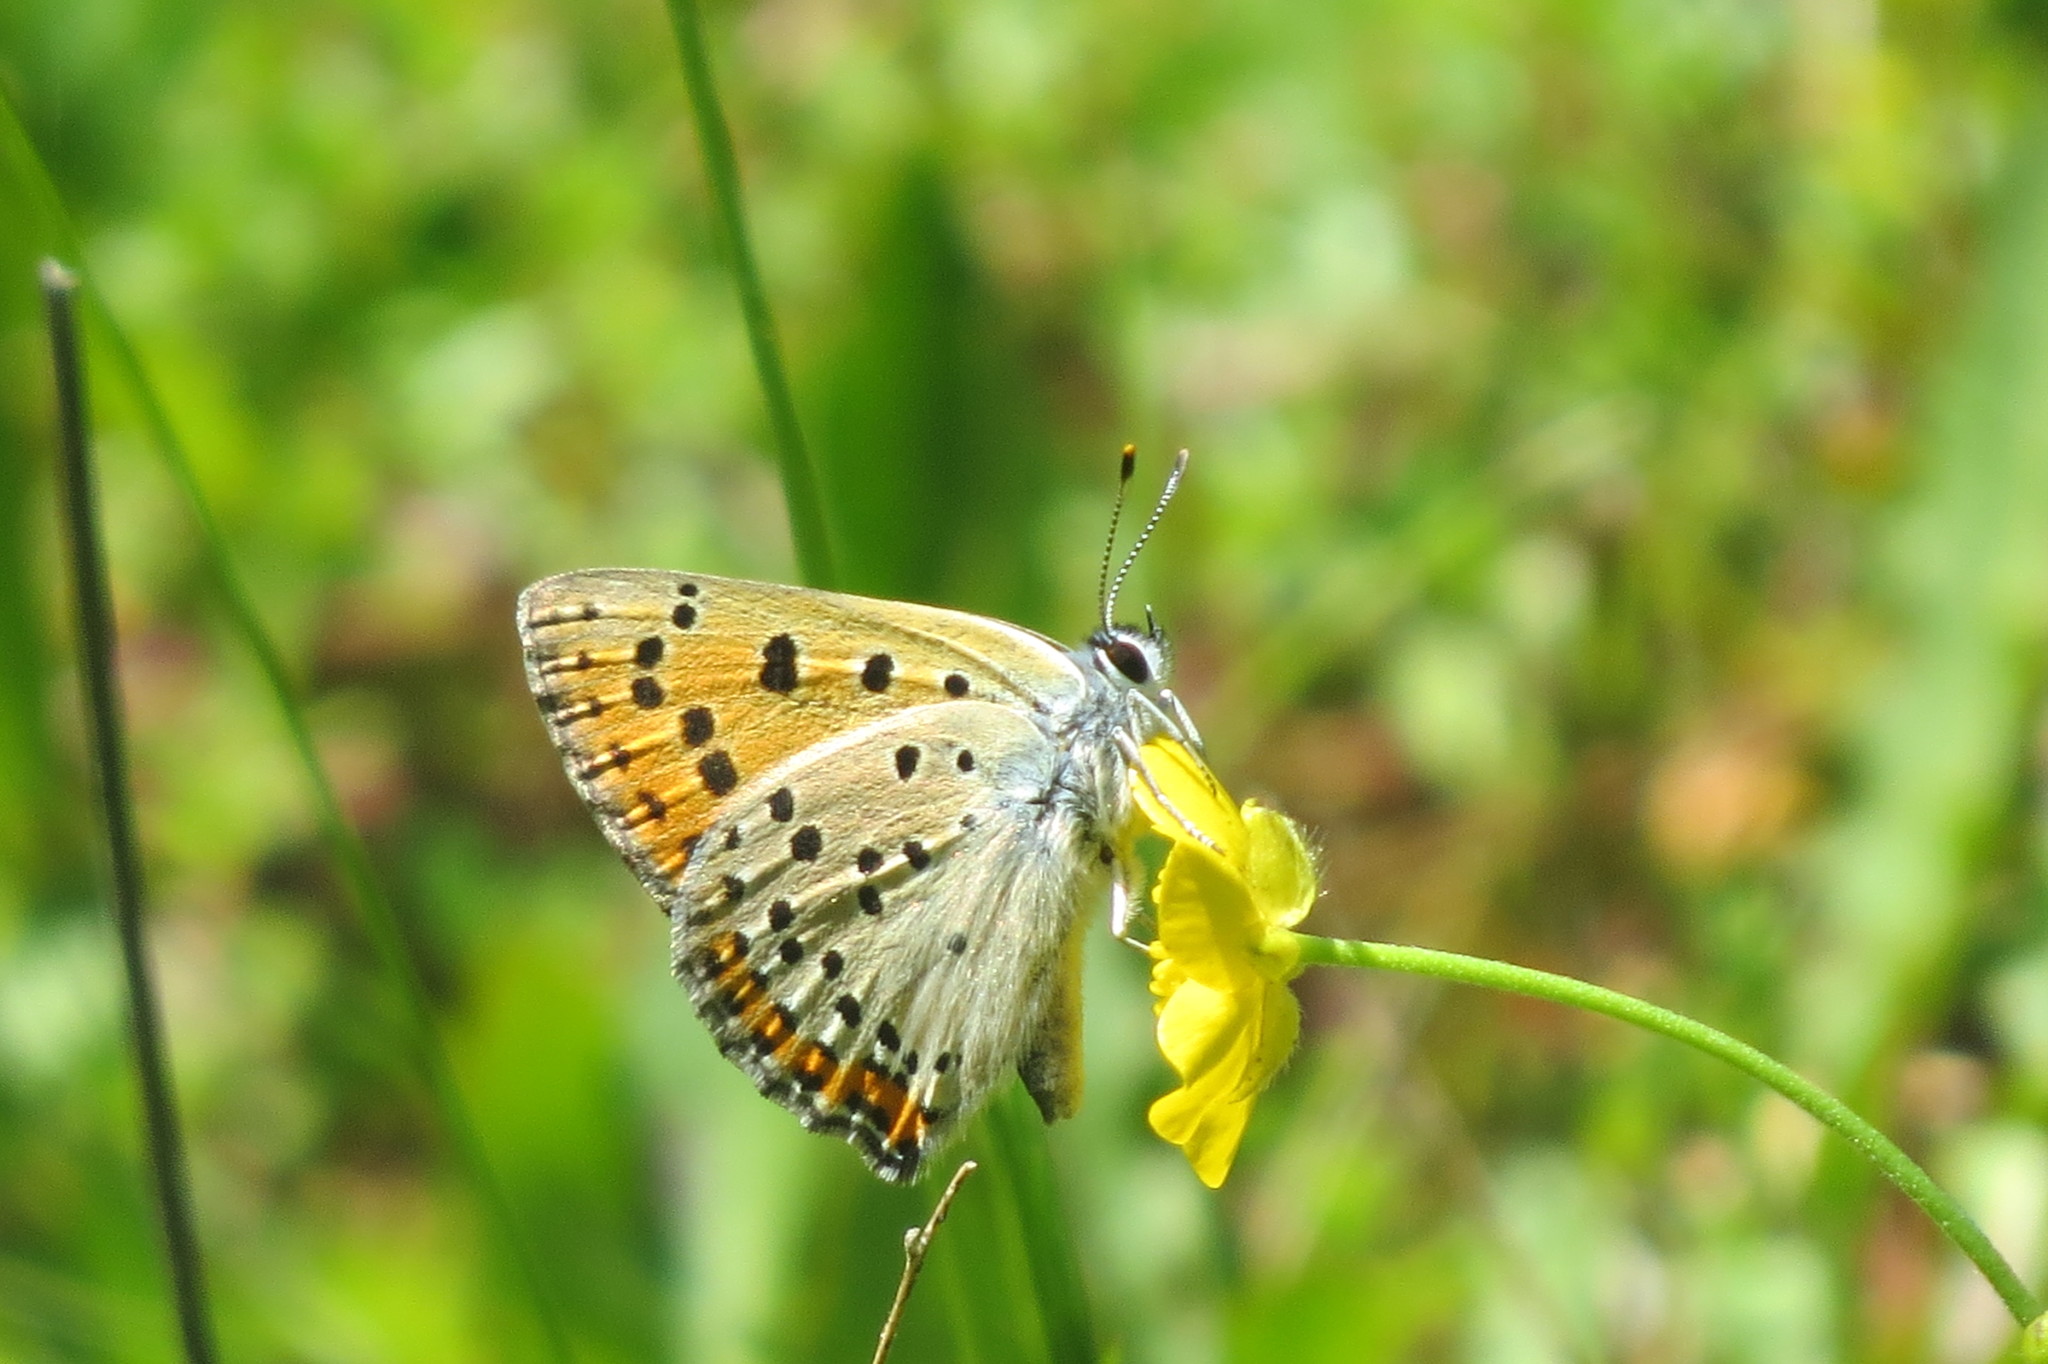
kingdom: Animalia
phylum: Arthropoda
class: Insecta
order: Lepidoptera
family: Lycaenidae
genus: Lycaena
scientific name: Lycaena alciphron
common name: Purple-shot copper
